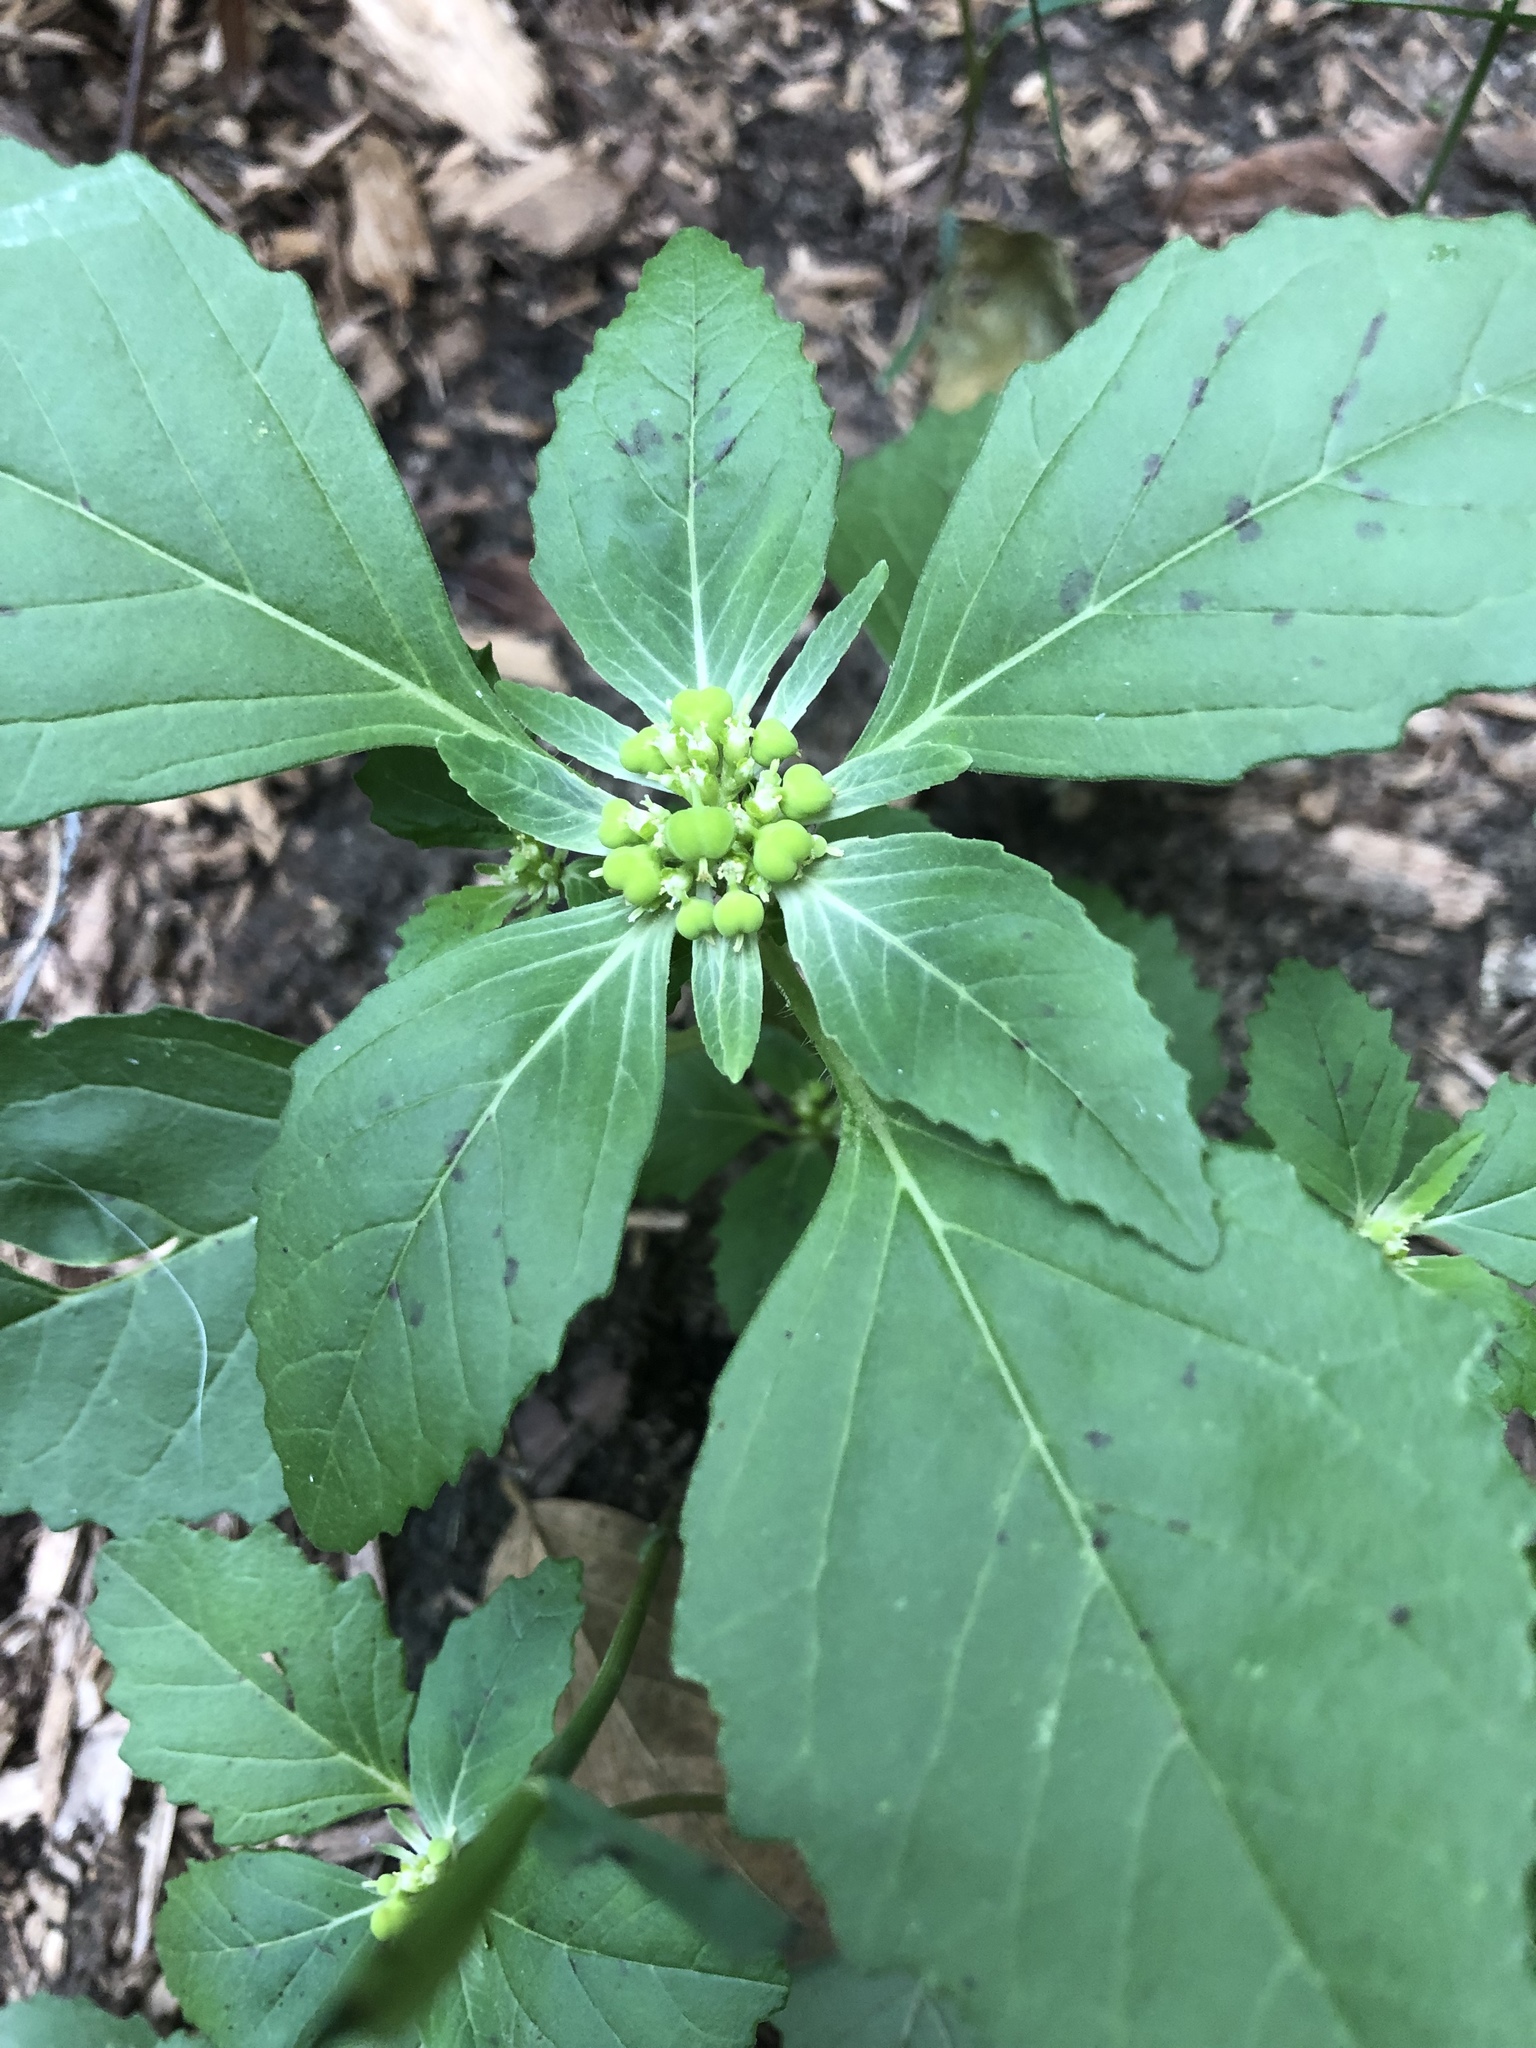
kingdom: Plantae
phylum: Tracheophyta
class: Magnoliopsida
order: Malpighiales
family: Euphorbiaceae
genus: Euphorbia
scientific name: Euphorbia dentata
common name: Dentate spurge
